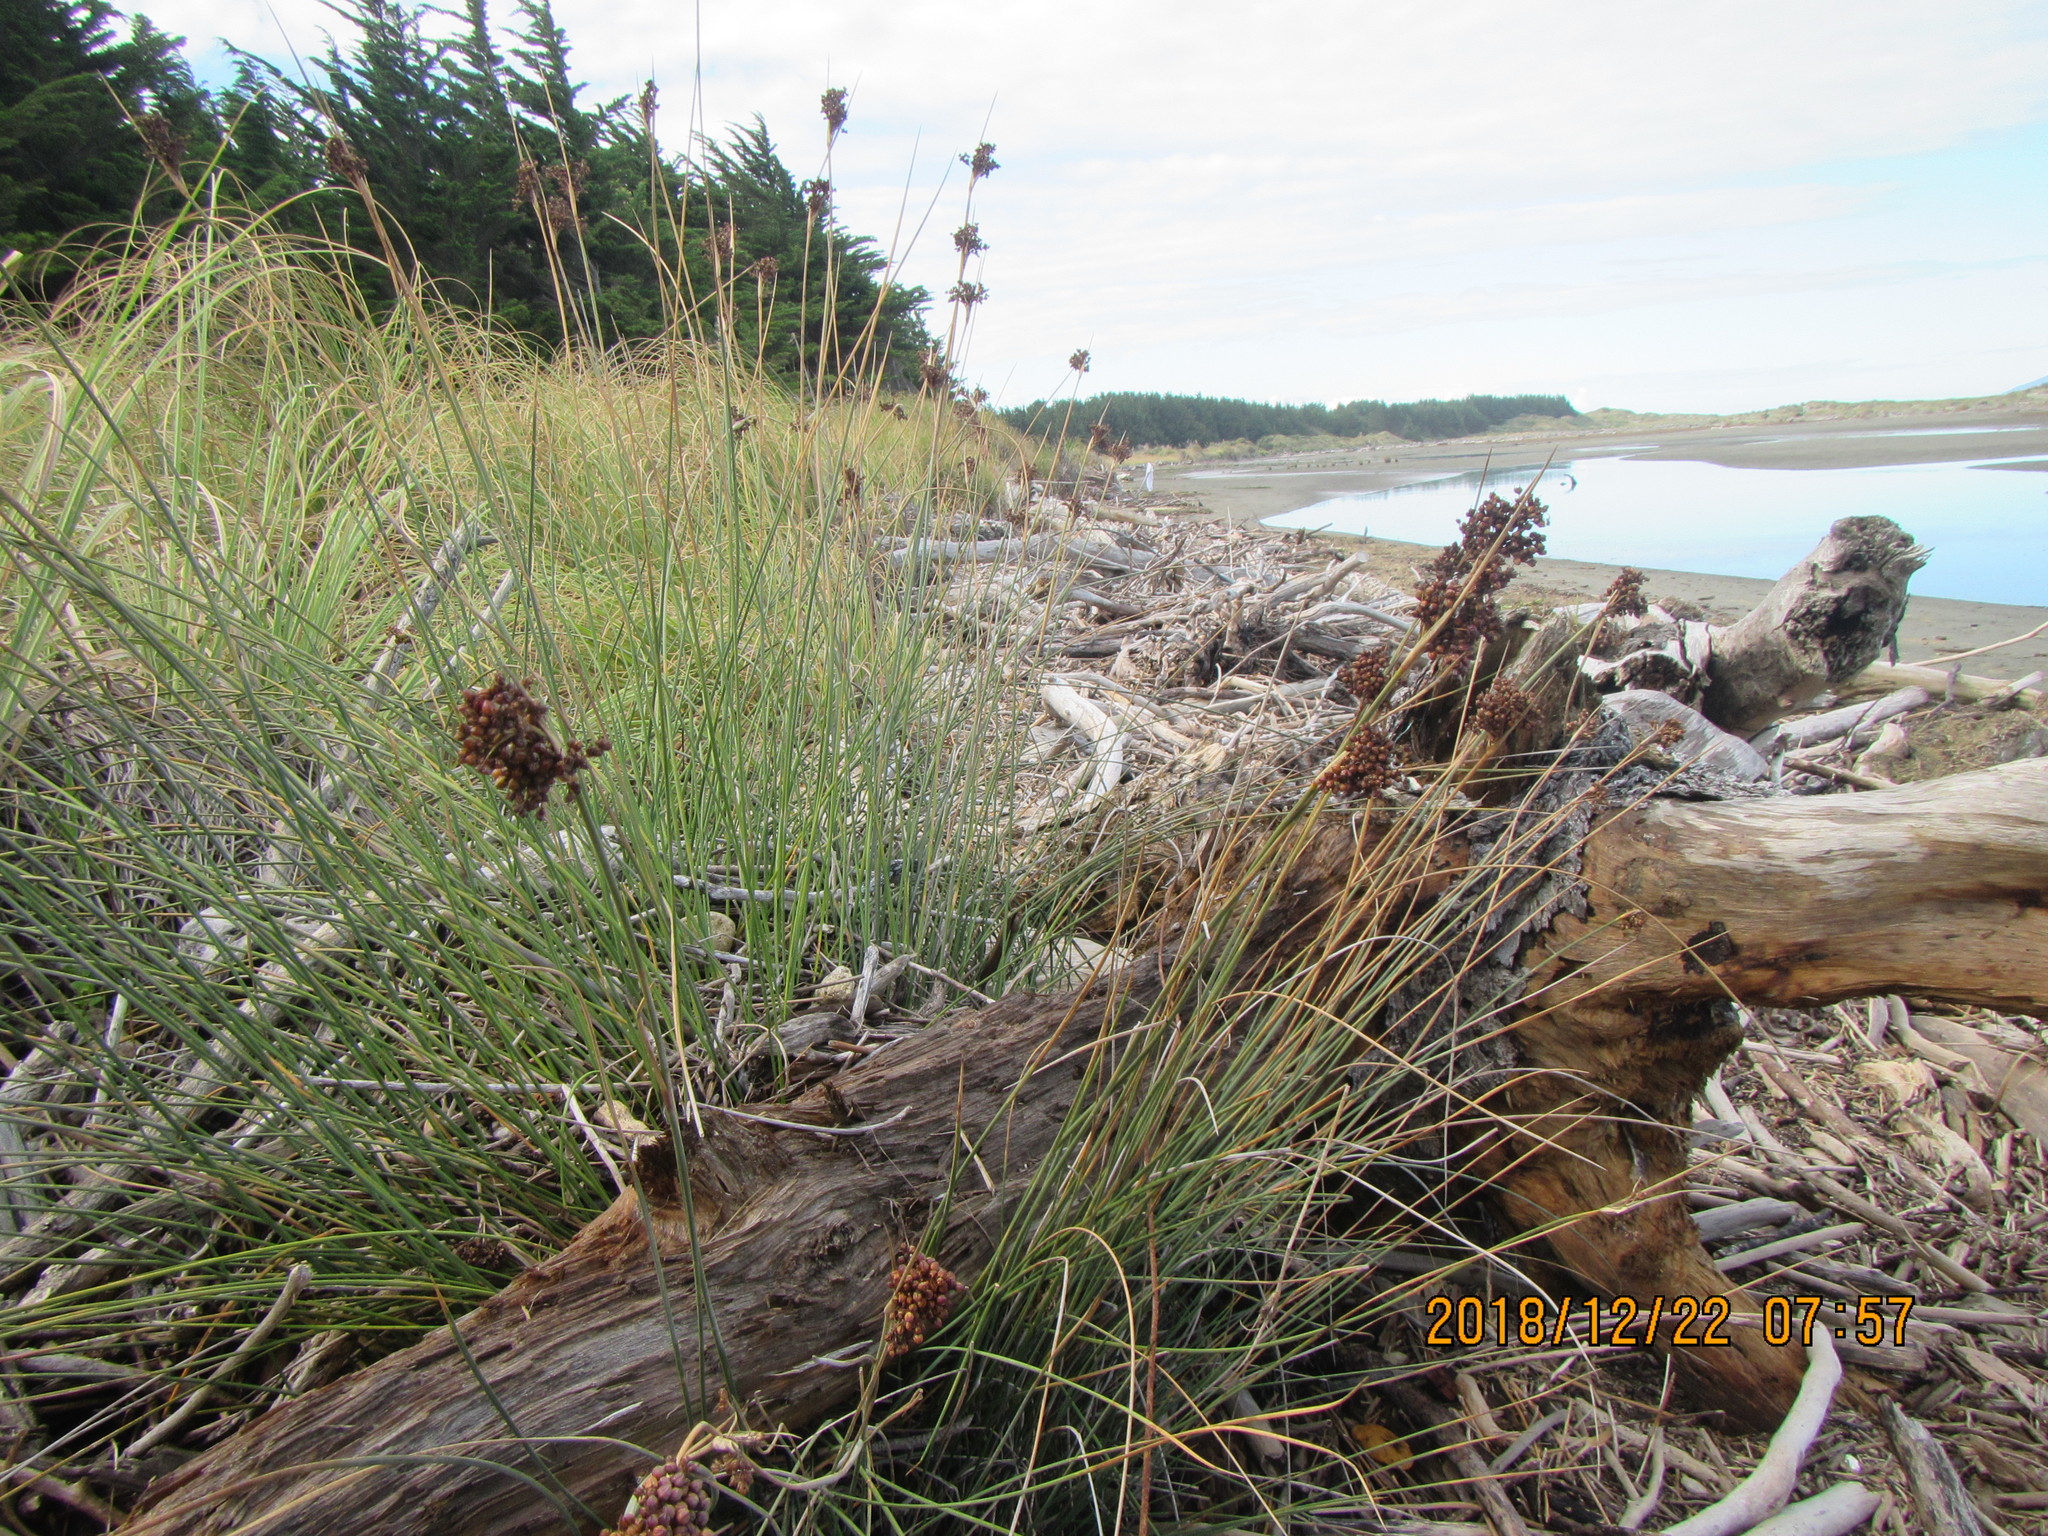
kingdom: Plantae
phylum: Tracheophyta
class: Liliopsida
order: Poales
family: Juncaceae
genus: Juncus
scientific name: Juncus acutus
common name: Sharp rush
